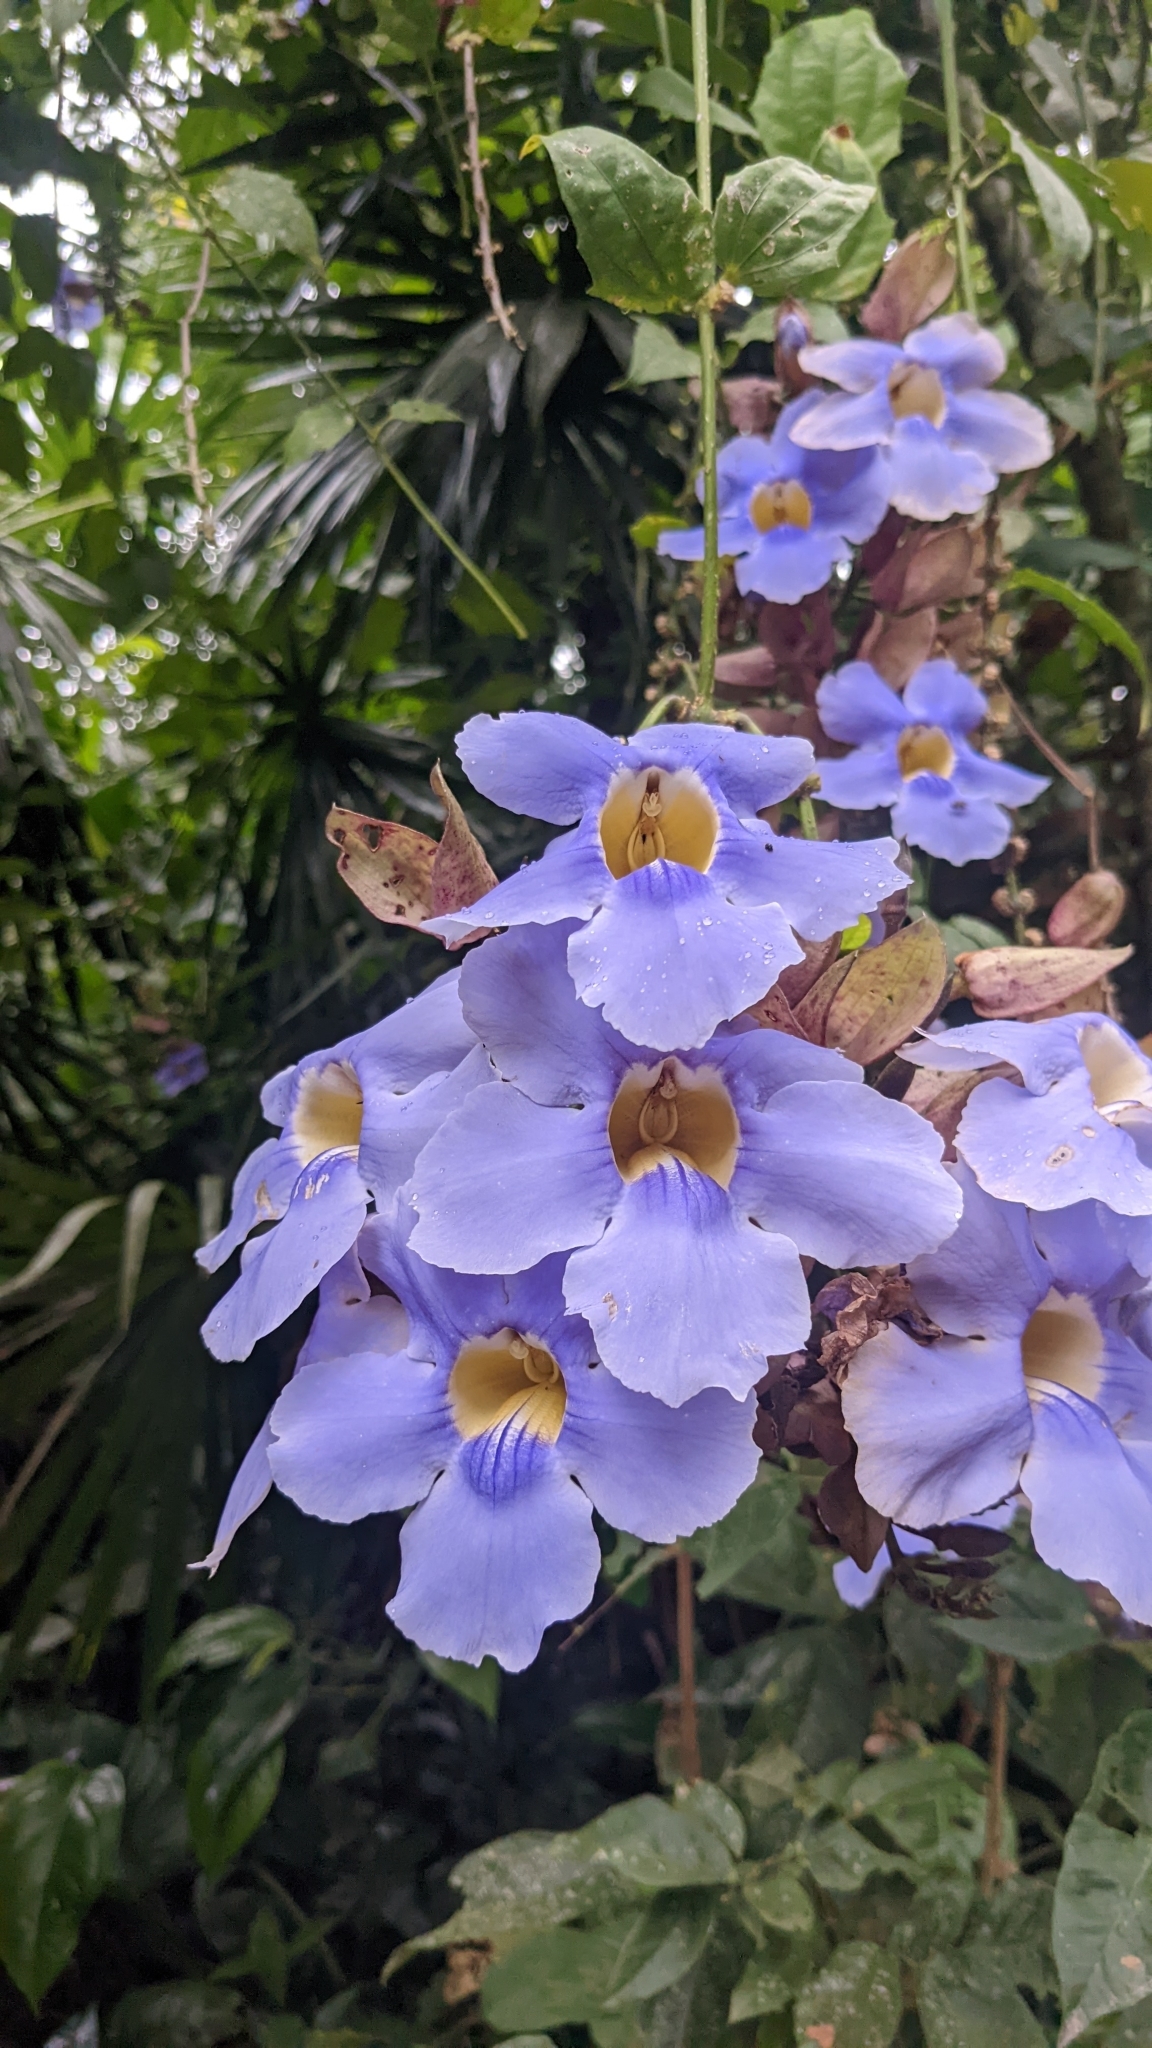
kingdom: Plantae
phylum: Tracheophyta
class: Magnoliopsida
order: Lamiales
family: Acanthaceae
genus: Thunbergia
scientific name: Thunbergia grandiflora
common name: Bengal trumpet
